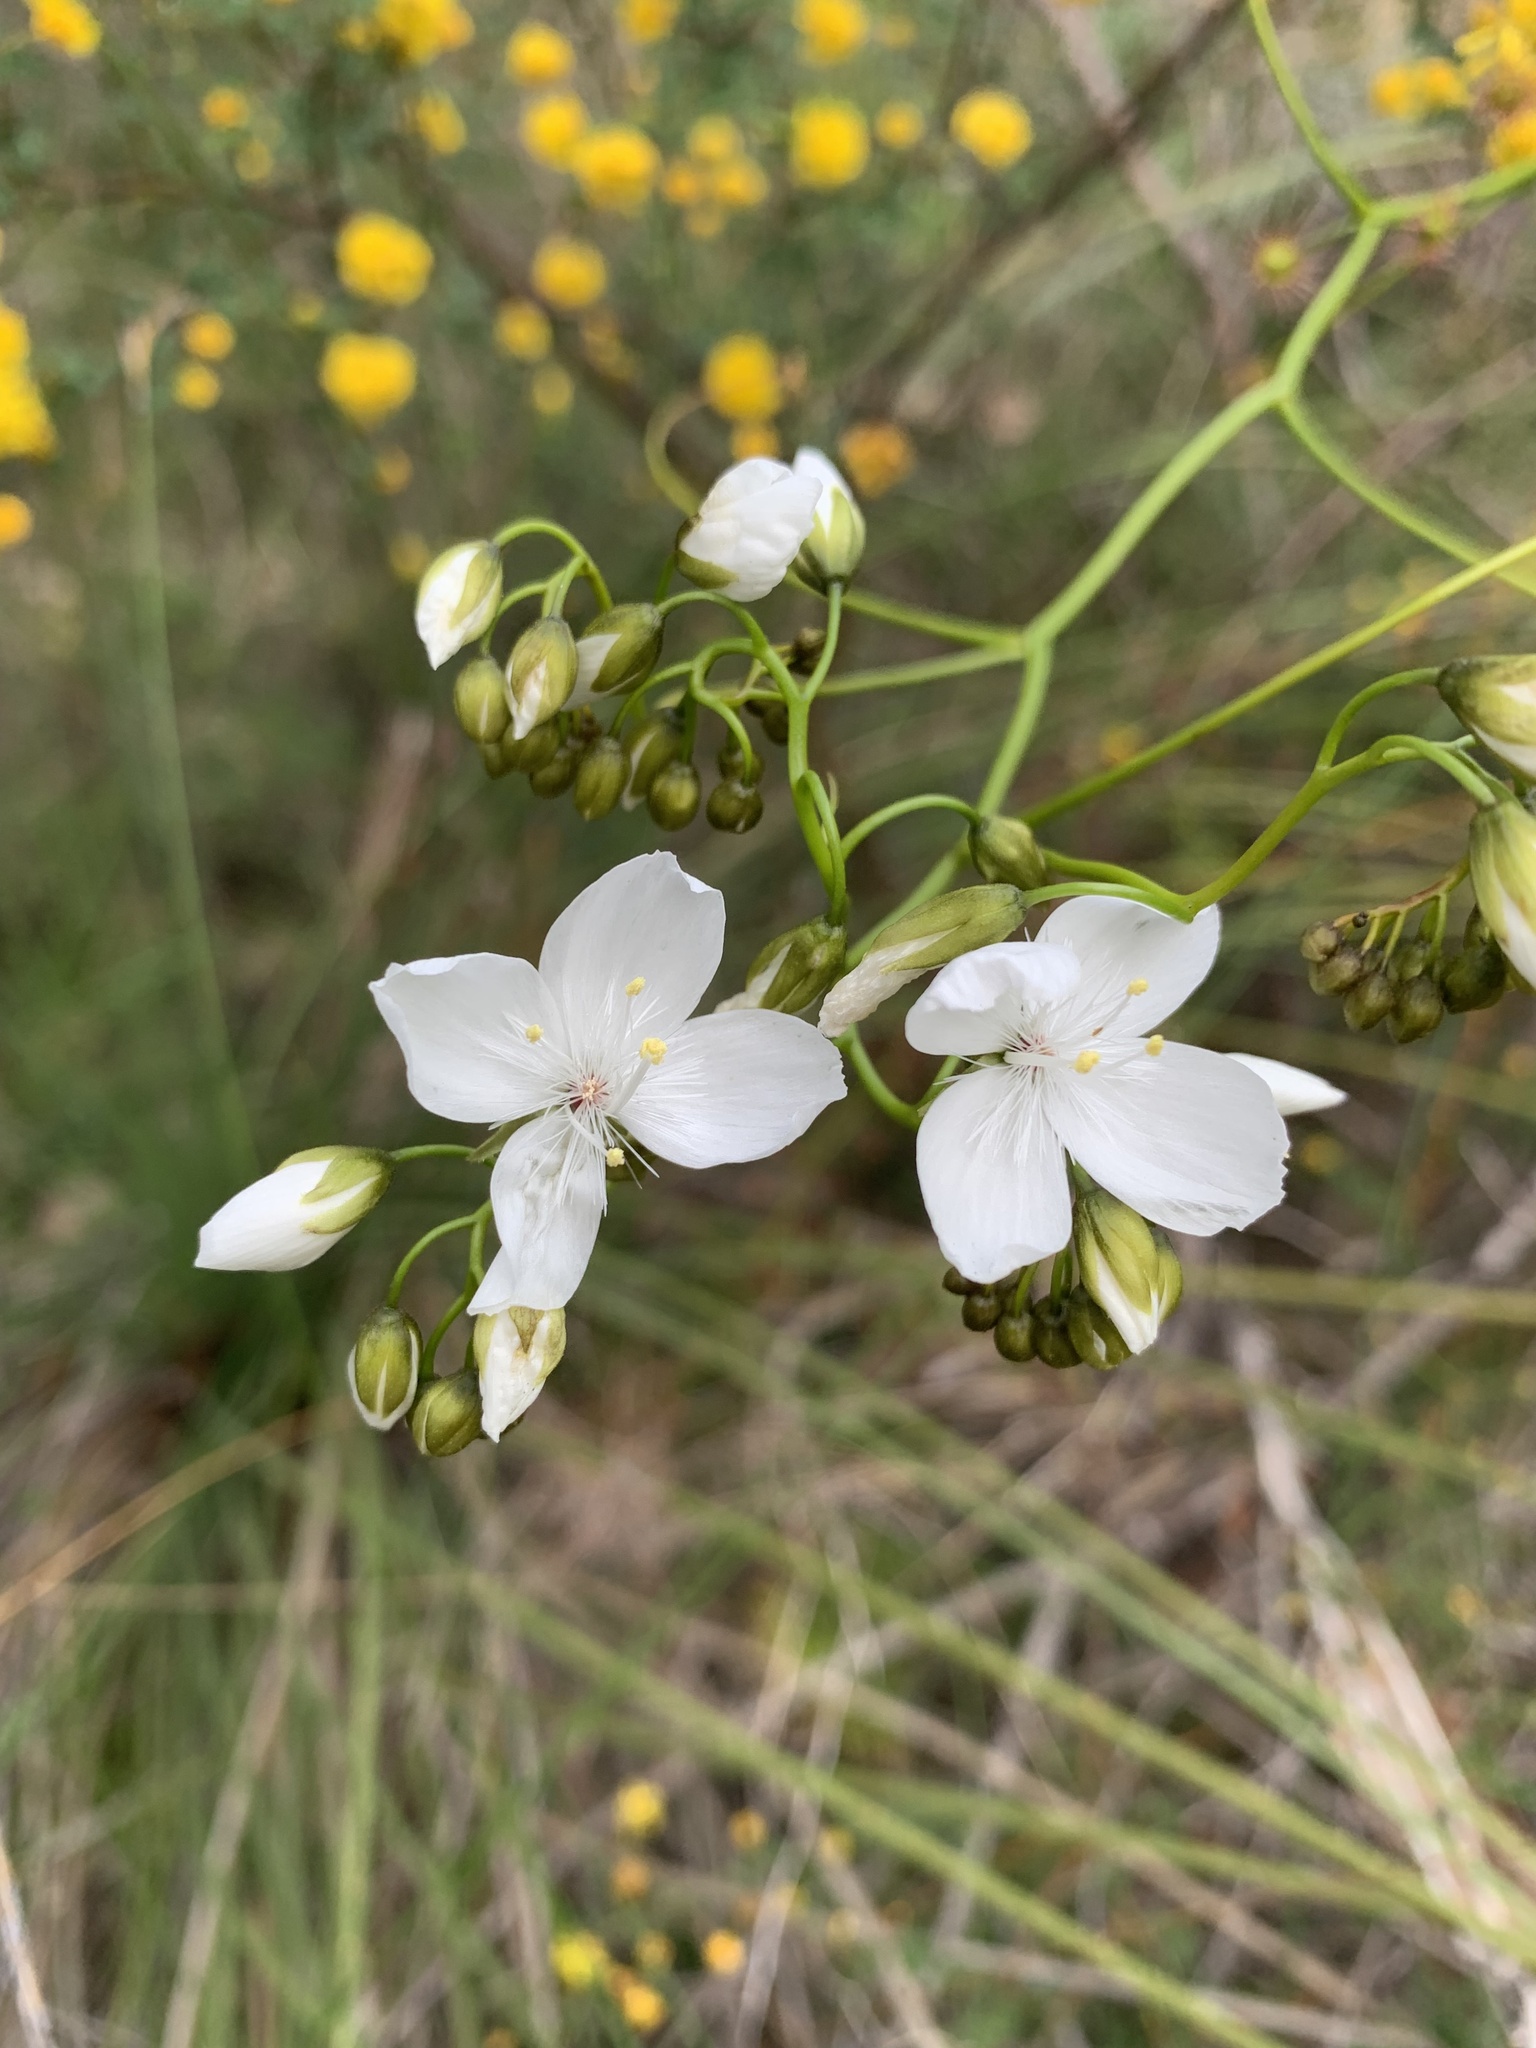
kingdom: Plantae
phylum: Tracheophyta
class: Magnoliopsida
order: Caryophyllales
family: Droseraceae
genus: Drosera
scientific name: Drosera pallida
